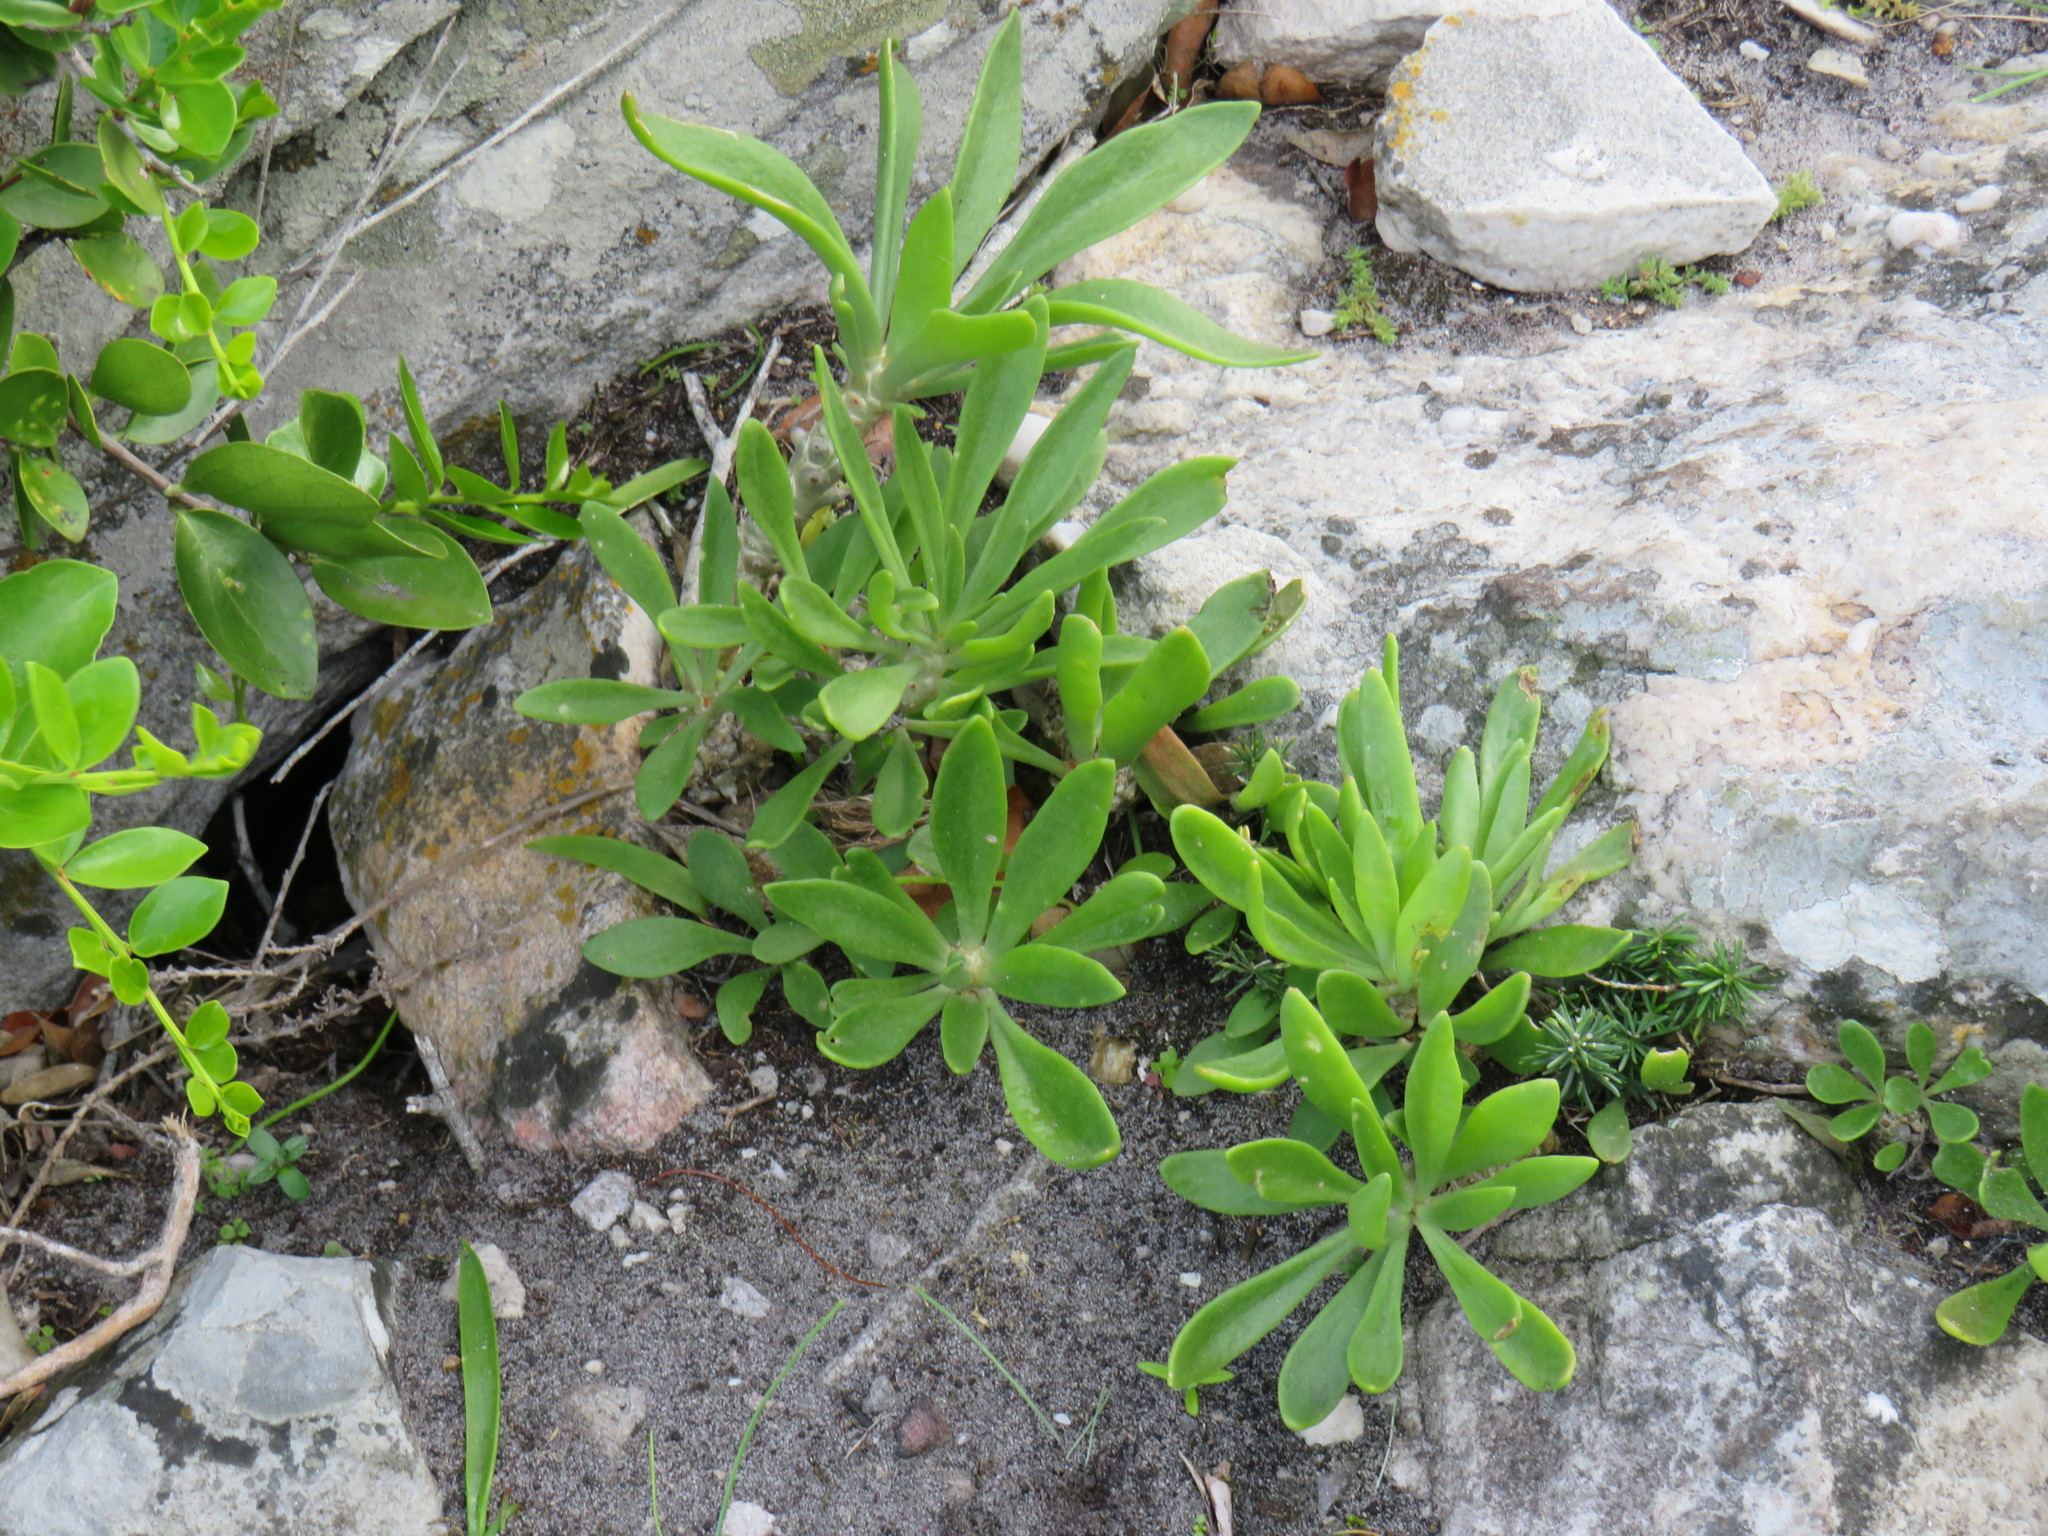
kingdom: Plantae
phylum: Tracheophyta
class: Magnoliopsida
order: Saxifragales
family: Crassulaceae
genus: Tylecodon
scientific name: Tylecodon grandiflorus
